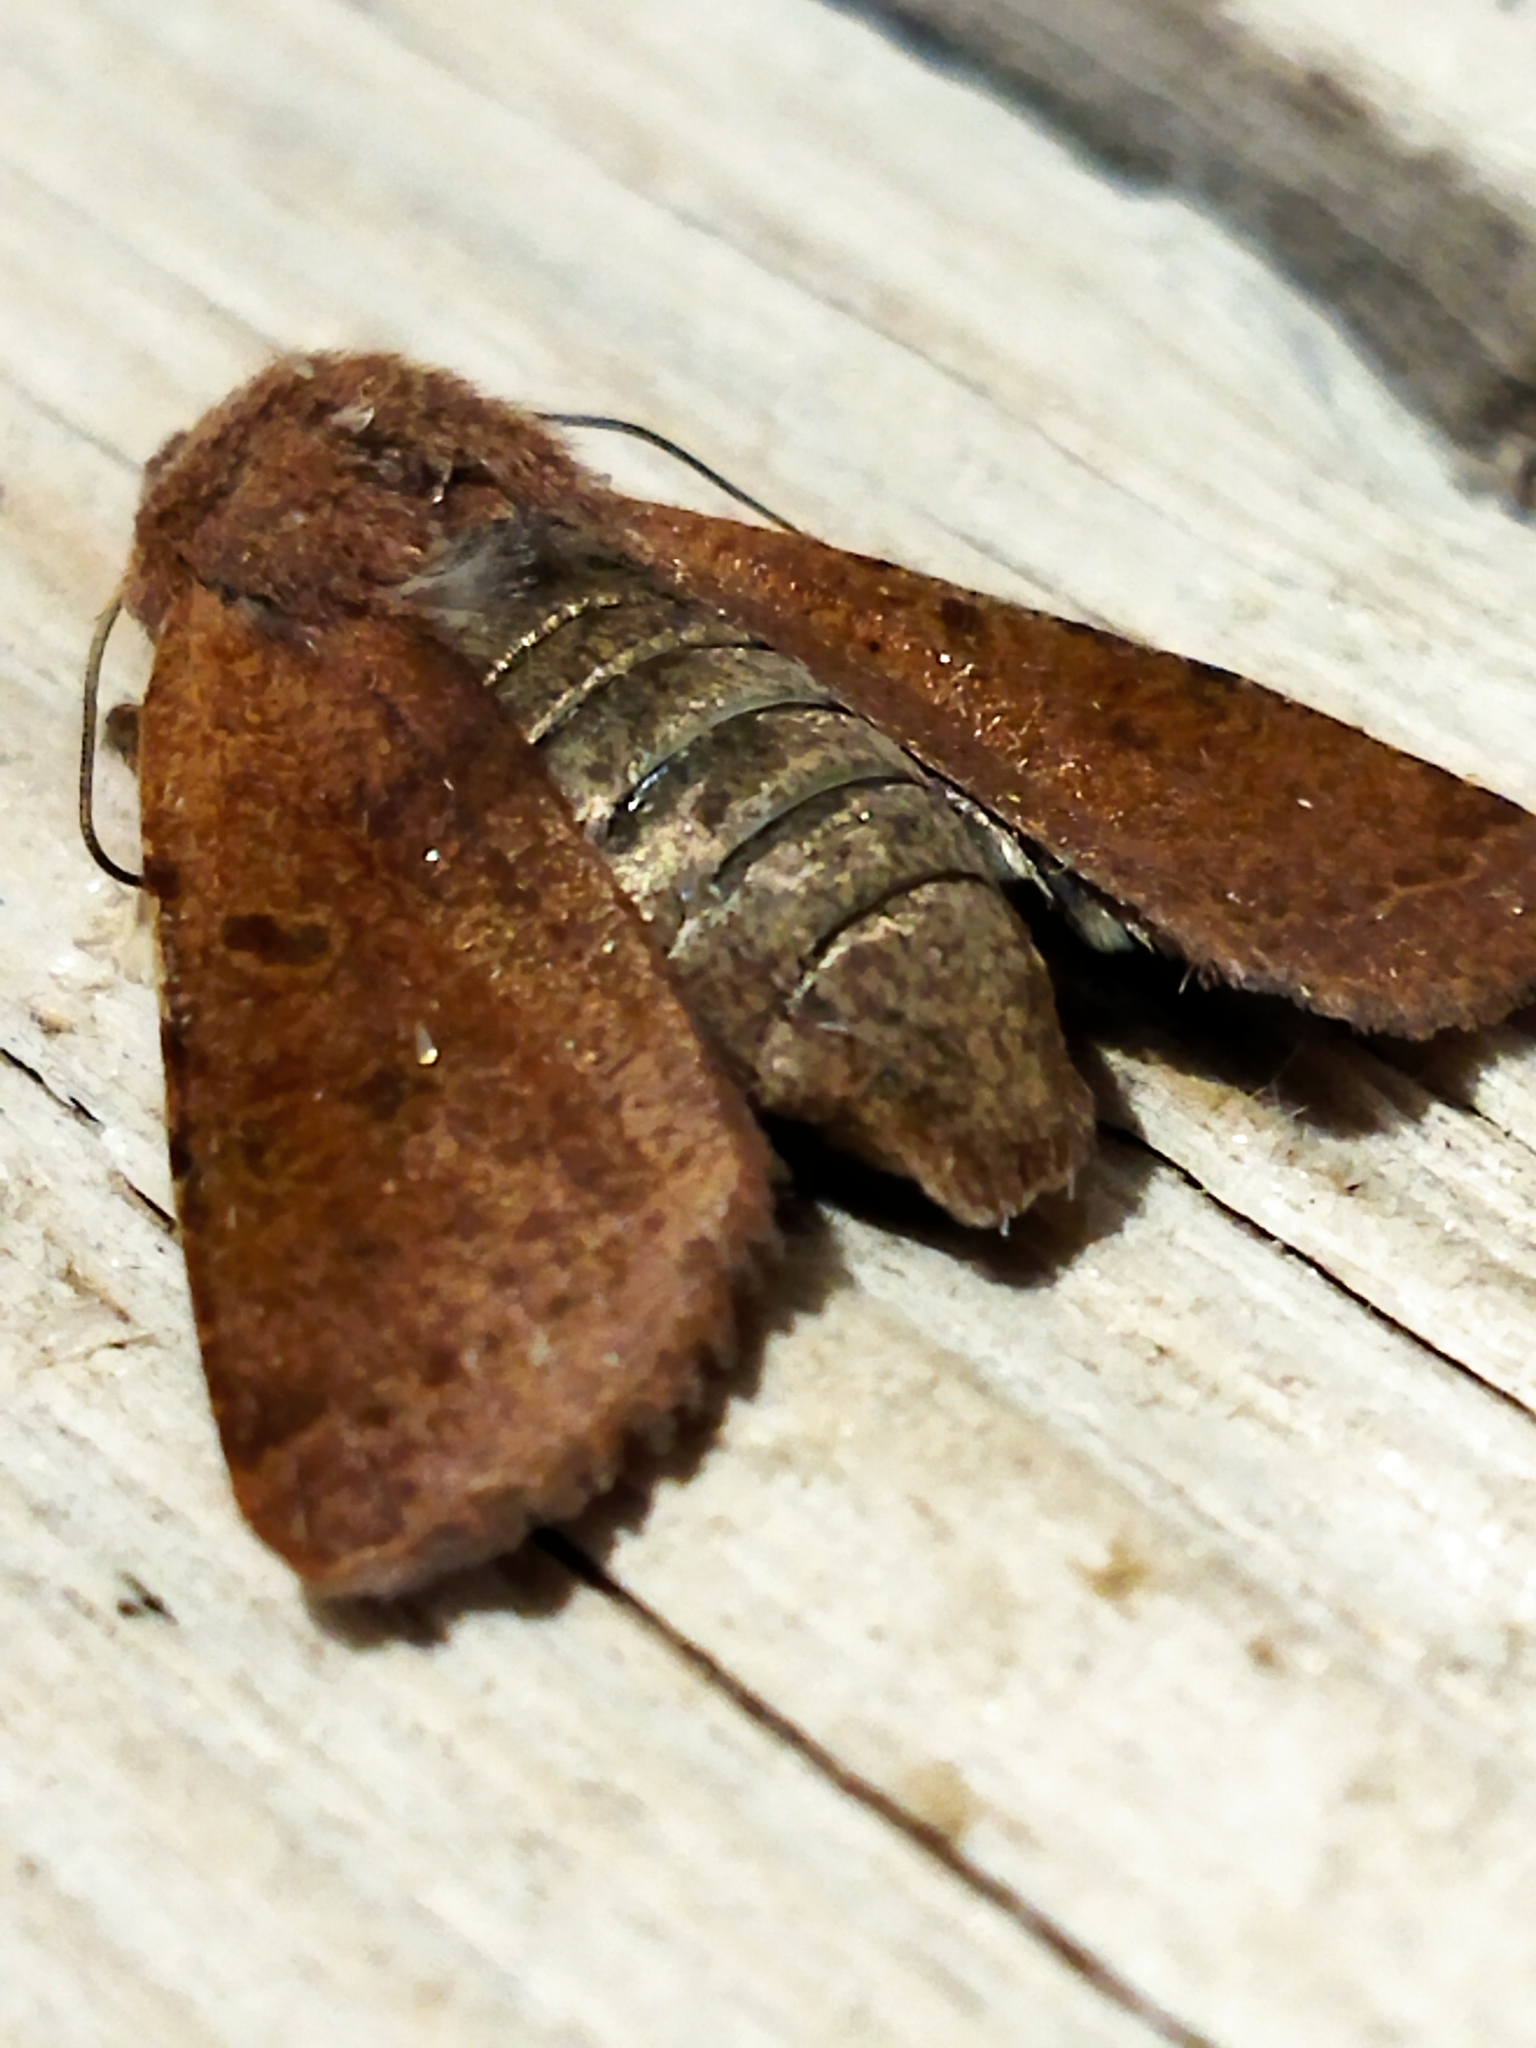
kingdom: Animalia
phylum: Arthropoda
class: Insecta
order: Lepidoptera
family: Noctuidae
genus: Agrochola
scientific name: Agrochola lychnidis
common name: Beaded chestnut
